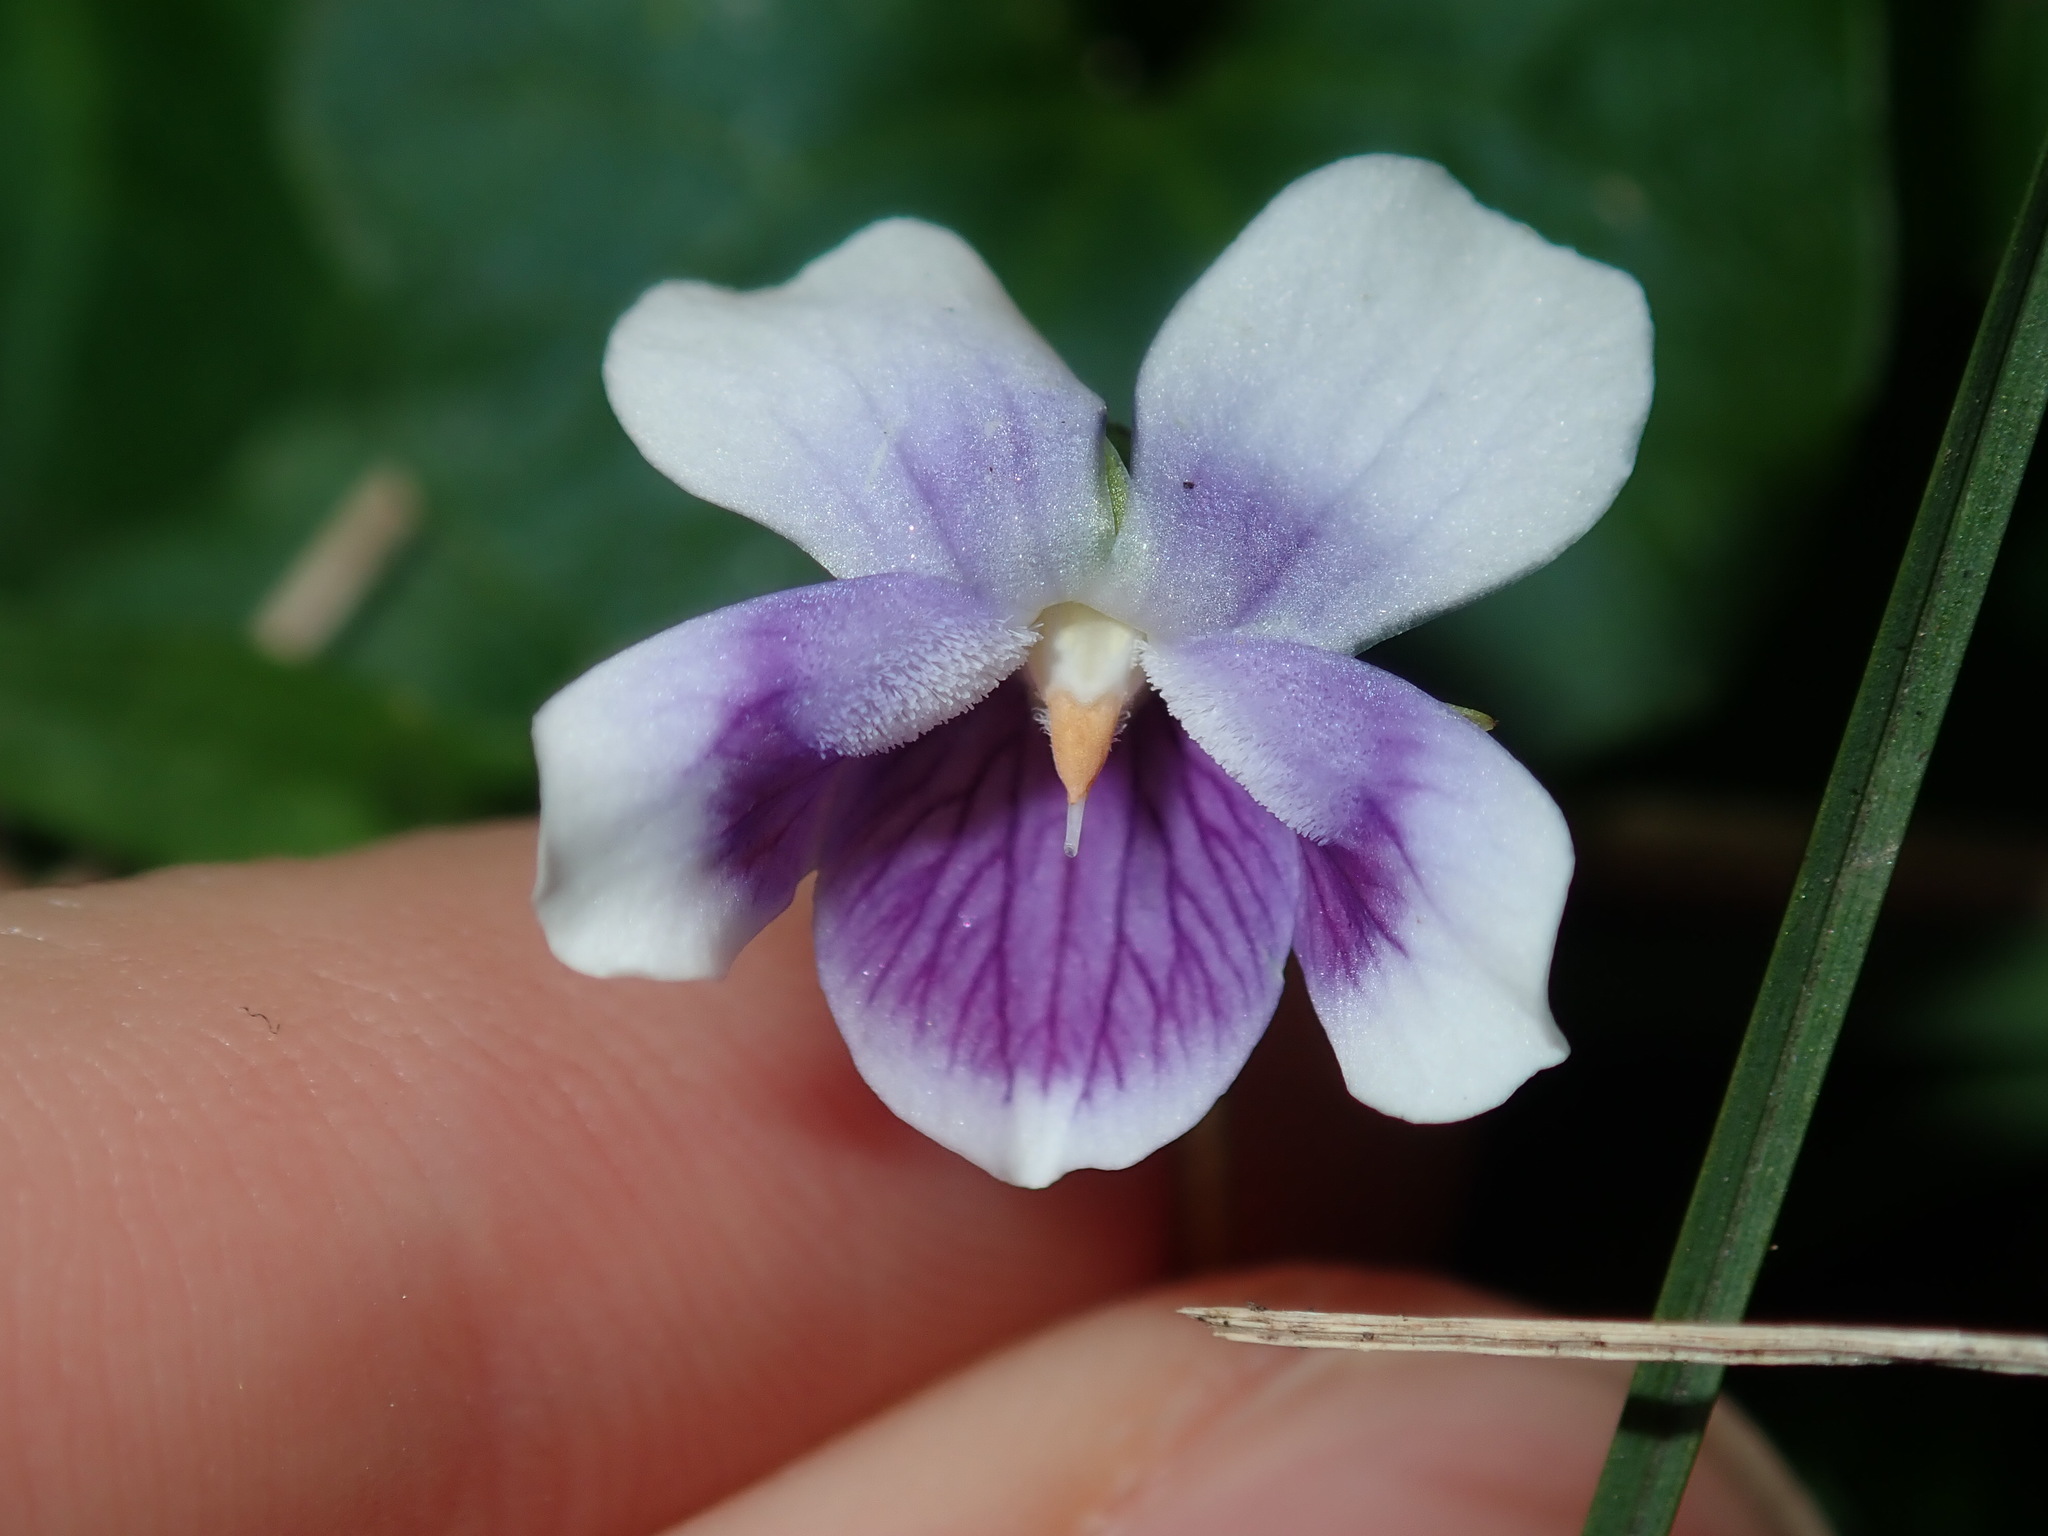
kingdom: Plantae
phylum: Tracheophyta
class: Magnoliopsida
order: Malpighiales
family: Violaceae
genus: Viola
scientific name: Viola banksii
